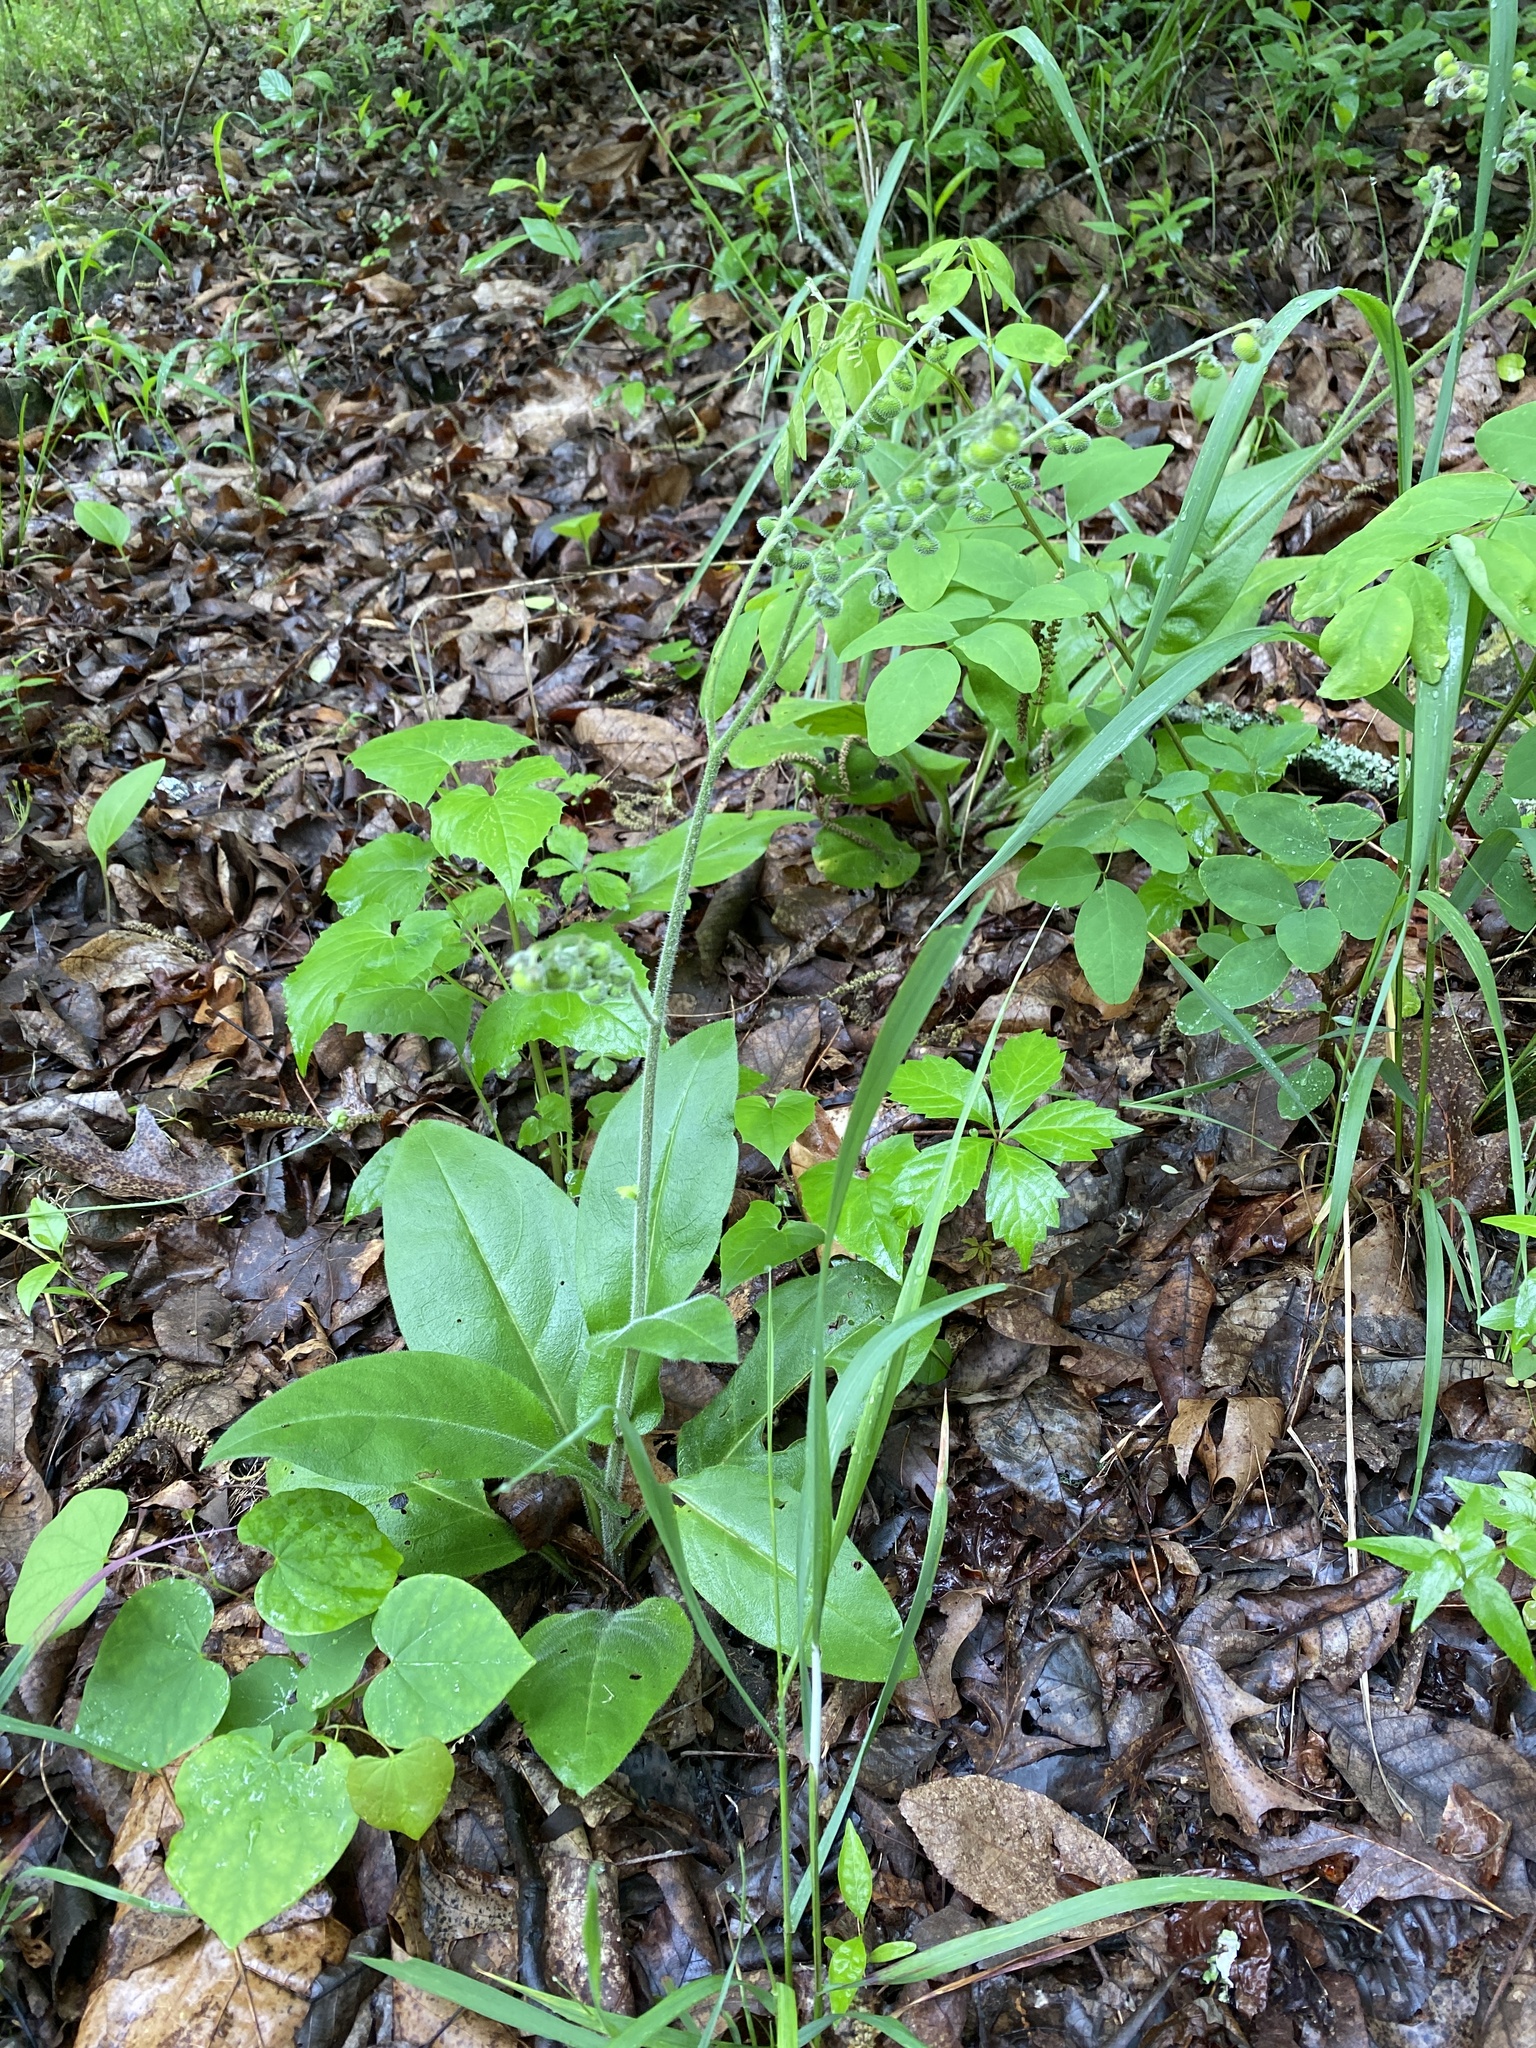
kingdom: Plantae
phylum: Tracheophyta
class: Magnoliopsida
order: Boraginales
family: Boraginaceae
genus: Andersonglossum
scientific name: Andersonglossum virginianum
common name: Wild comfrey
